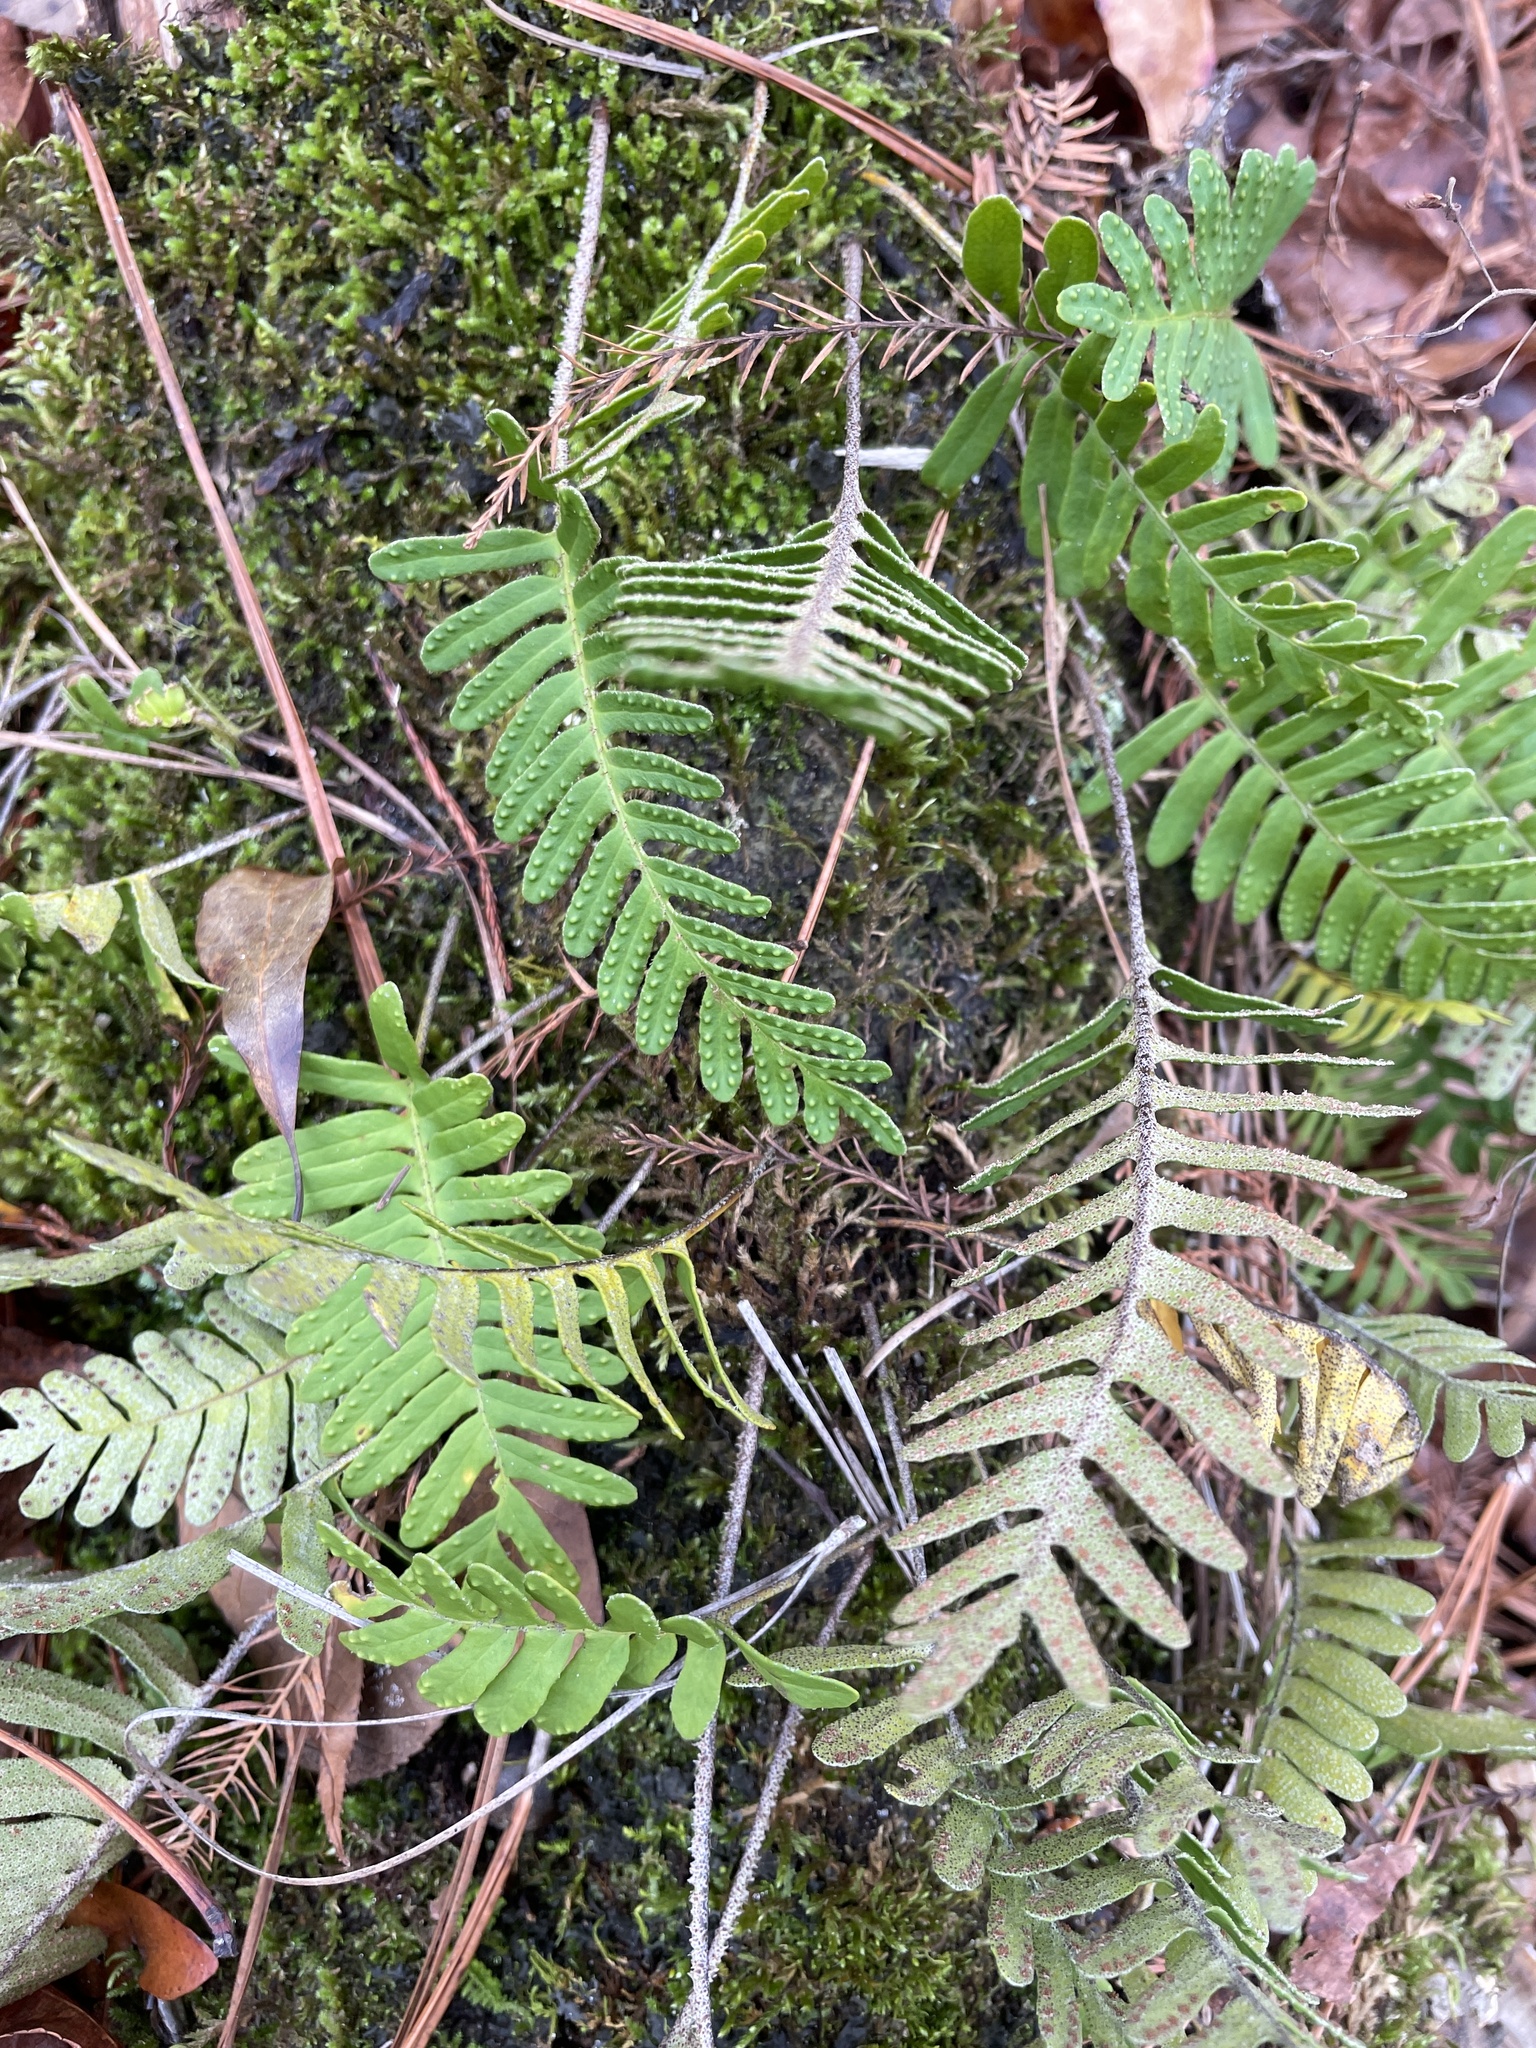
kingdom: Plantae
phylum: Tracheophyta
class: Polypodiopsida
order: Polypodiales
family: Polypodiaceae
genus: Pleopeltis
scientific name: Pleopeltis michauxiana
